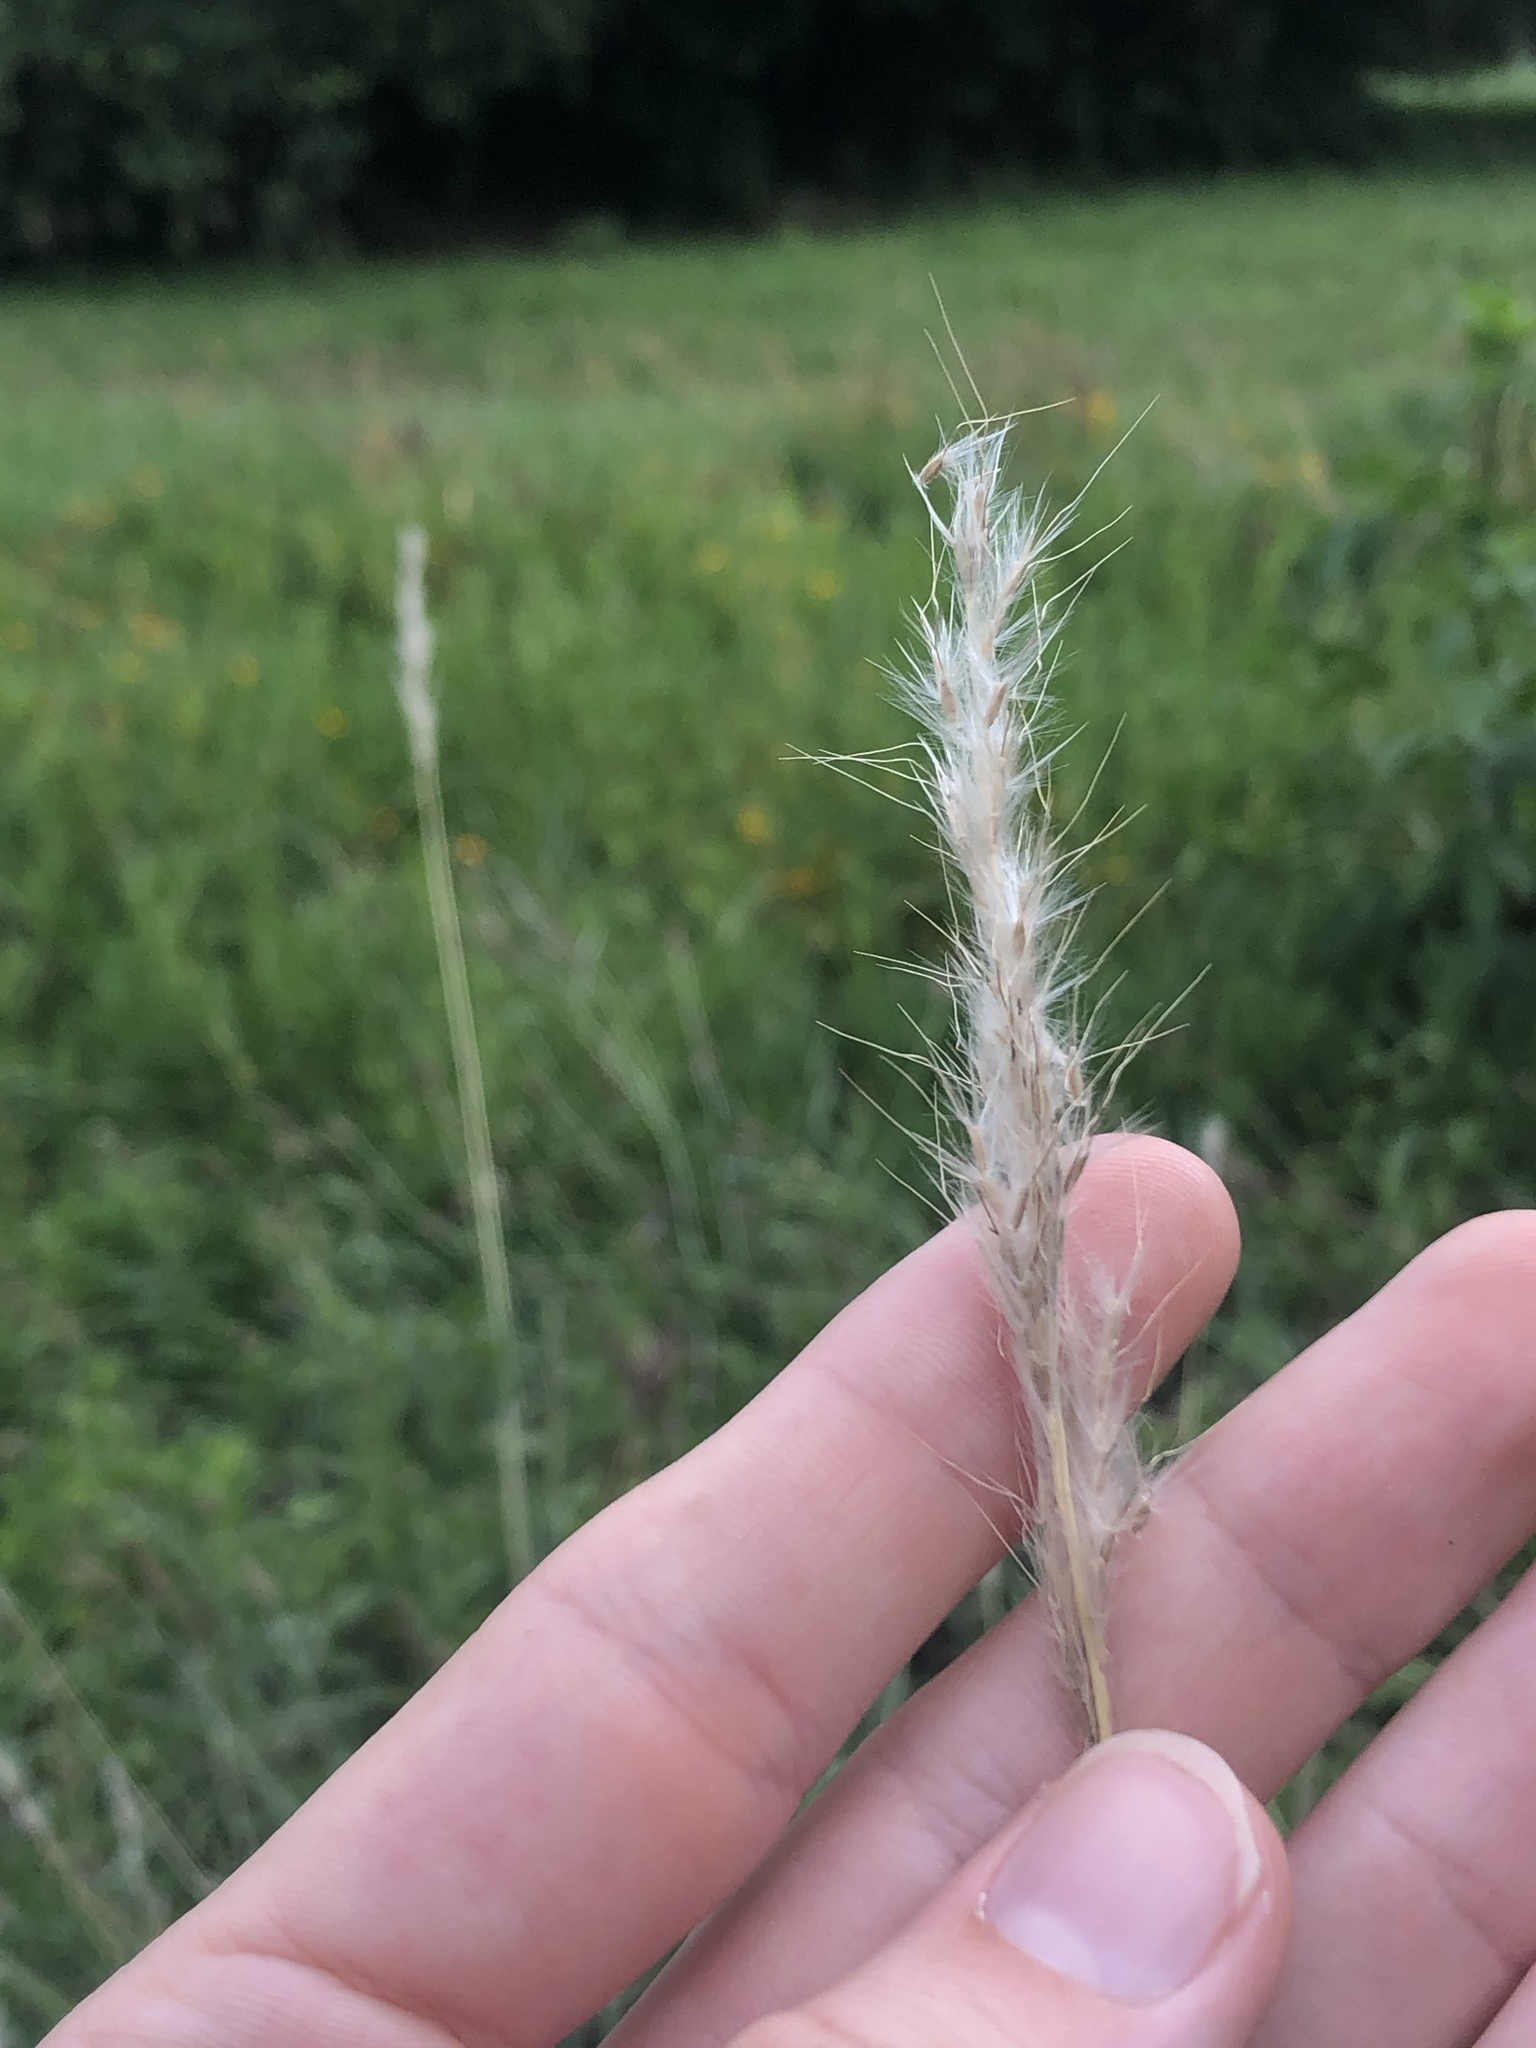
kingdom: Plantae
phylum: Tracheophyta
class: Liliopsida
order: Poales
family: Poaceae
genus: Bothriochloa
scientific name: Bothriochloa torreyana
